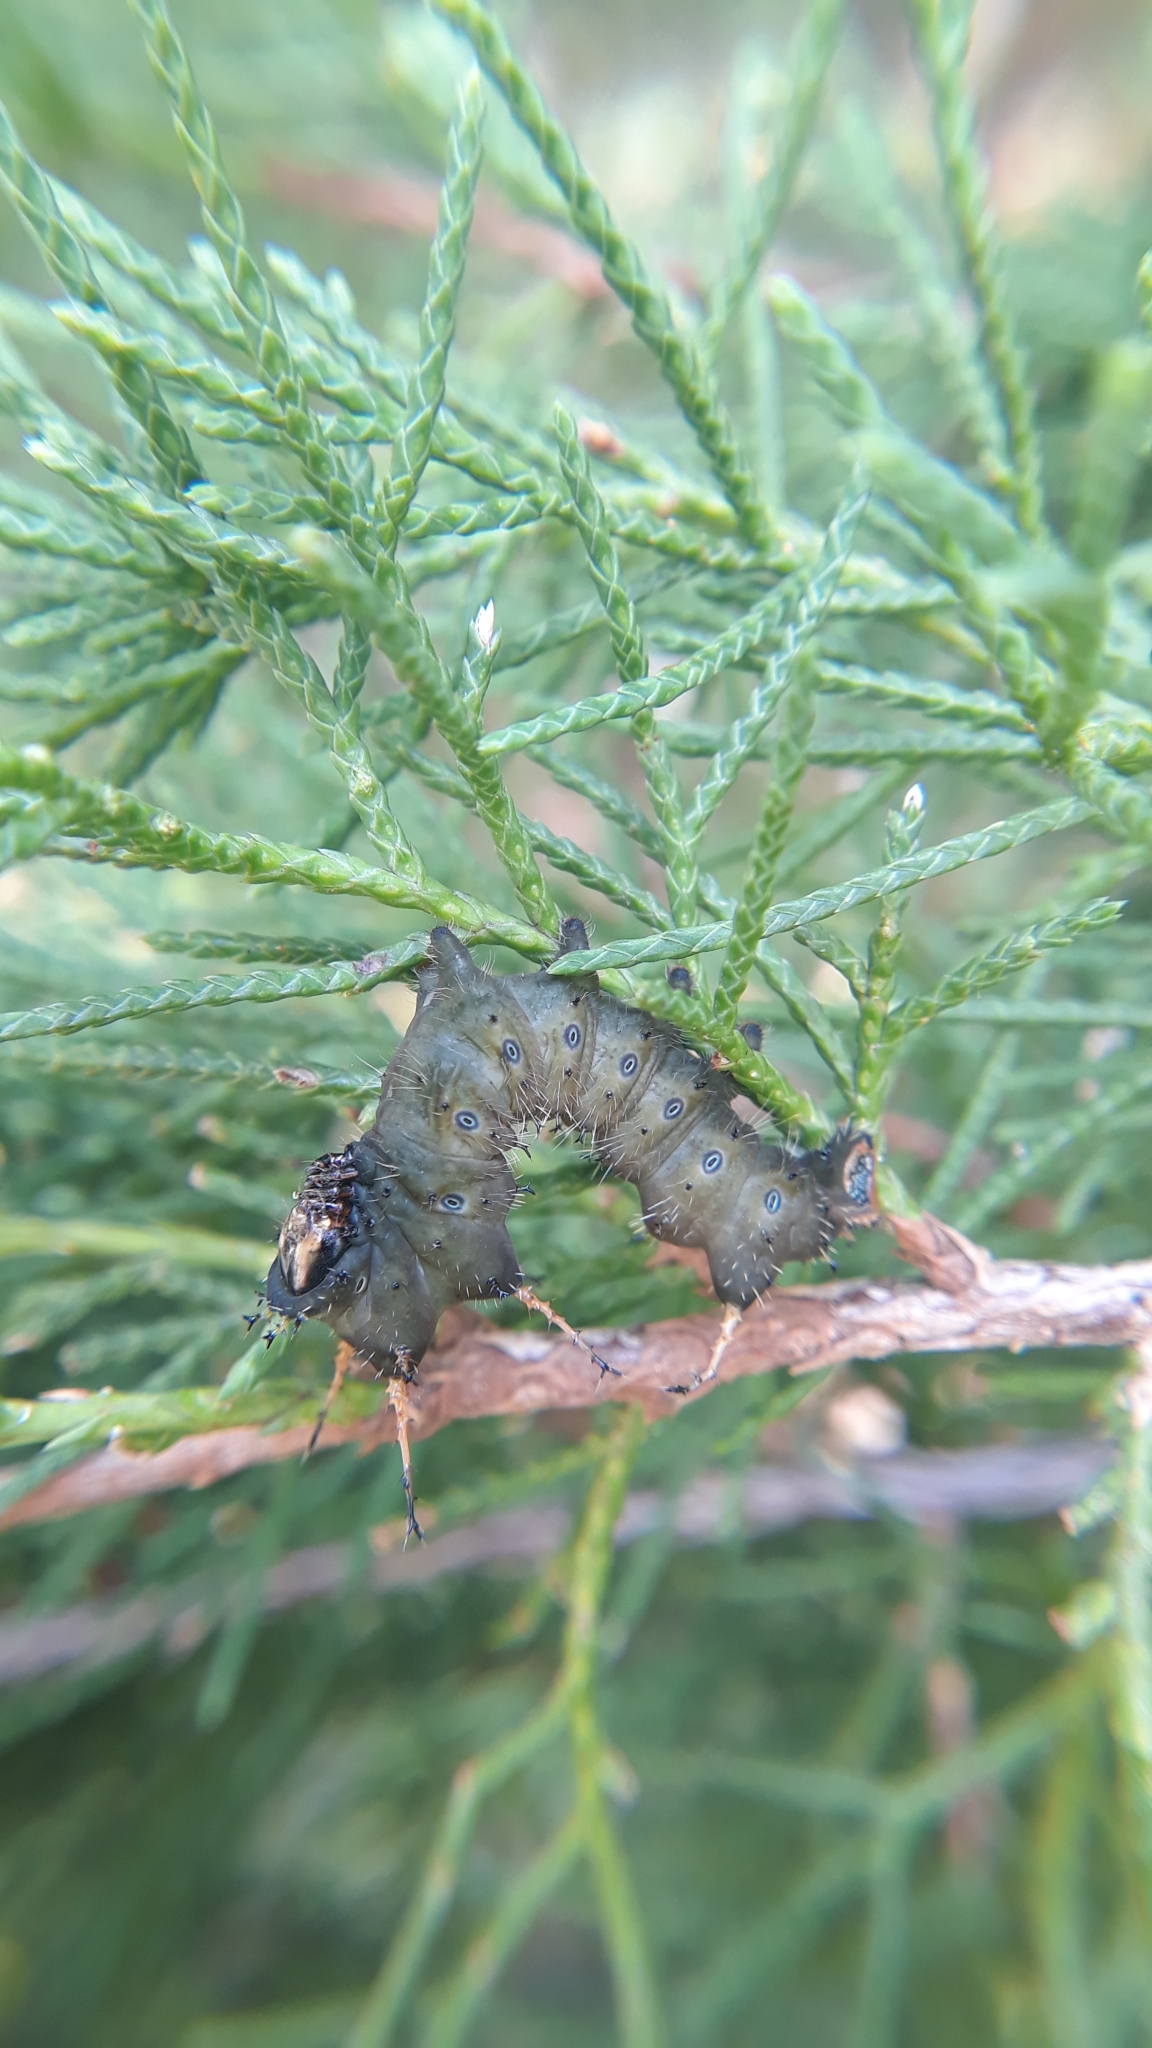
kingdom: Animalia
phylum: Arthropoda
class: Insecta
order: Lepidoptera
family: Saturniidae
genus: Eacles
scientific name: Eacles imperialis
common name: Imperial moth
